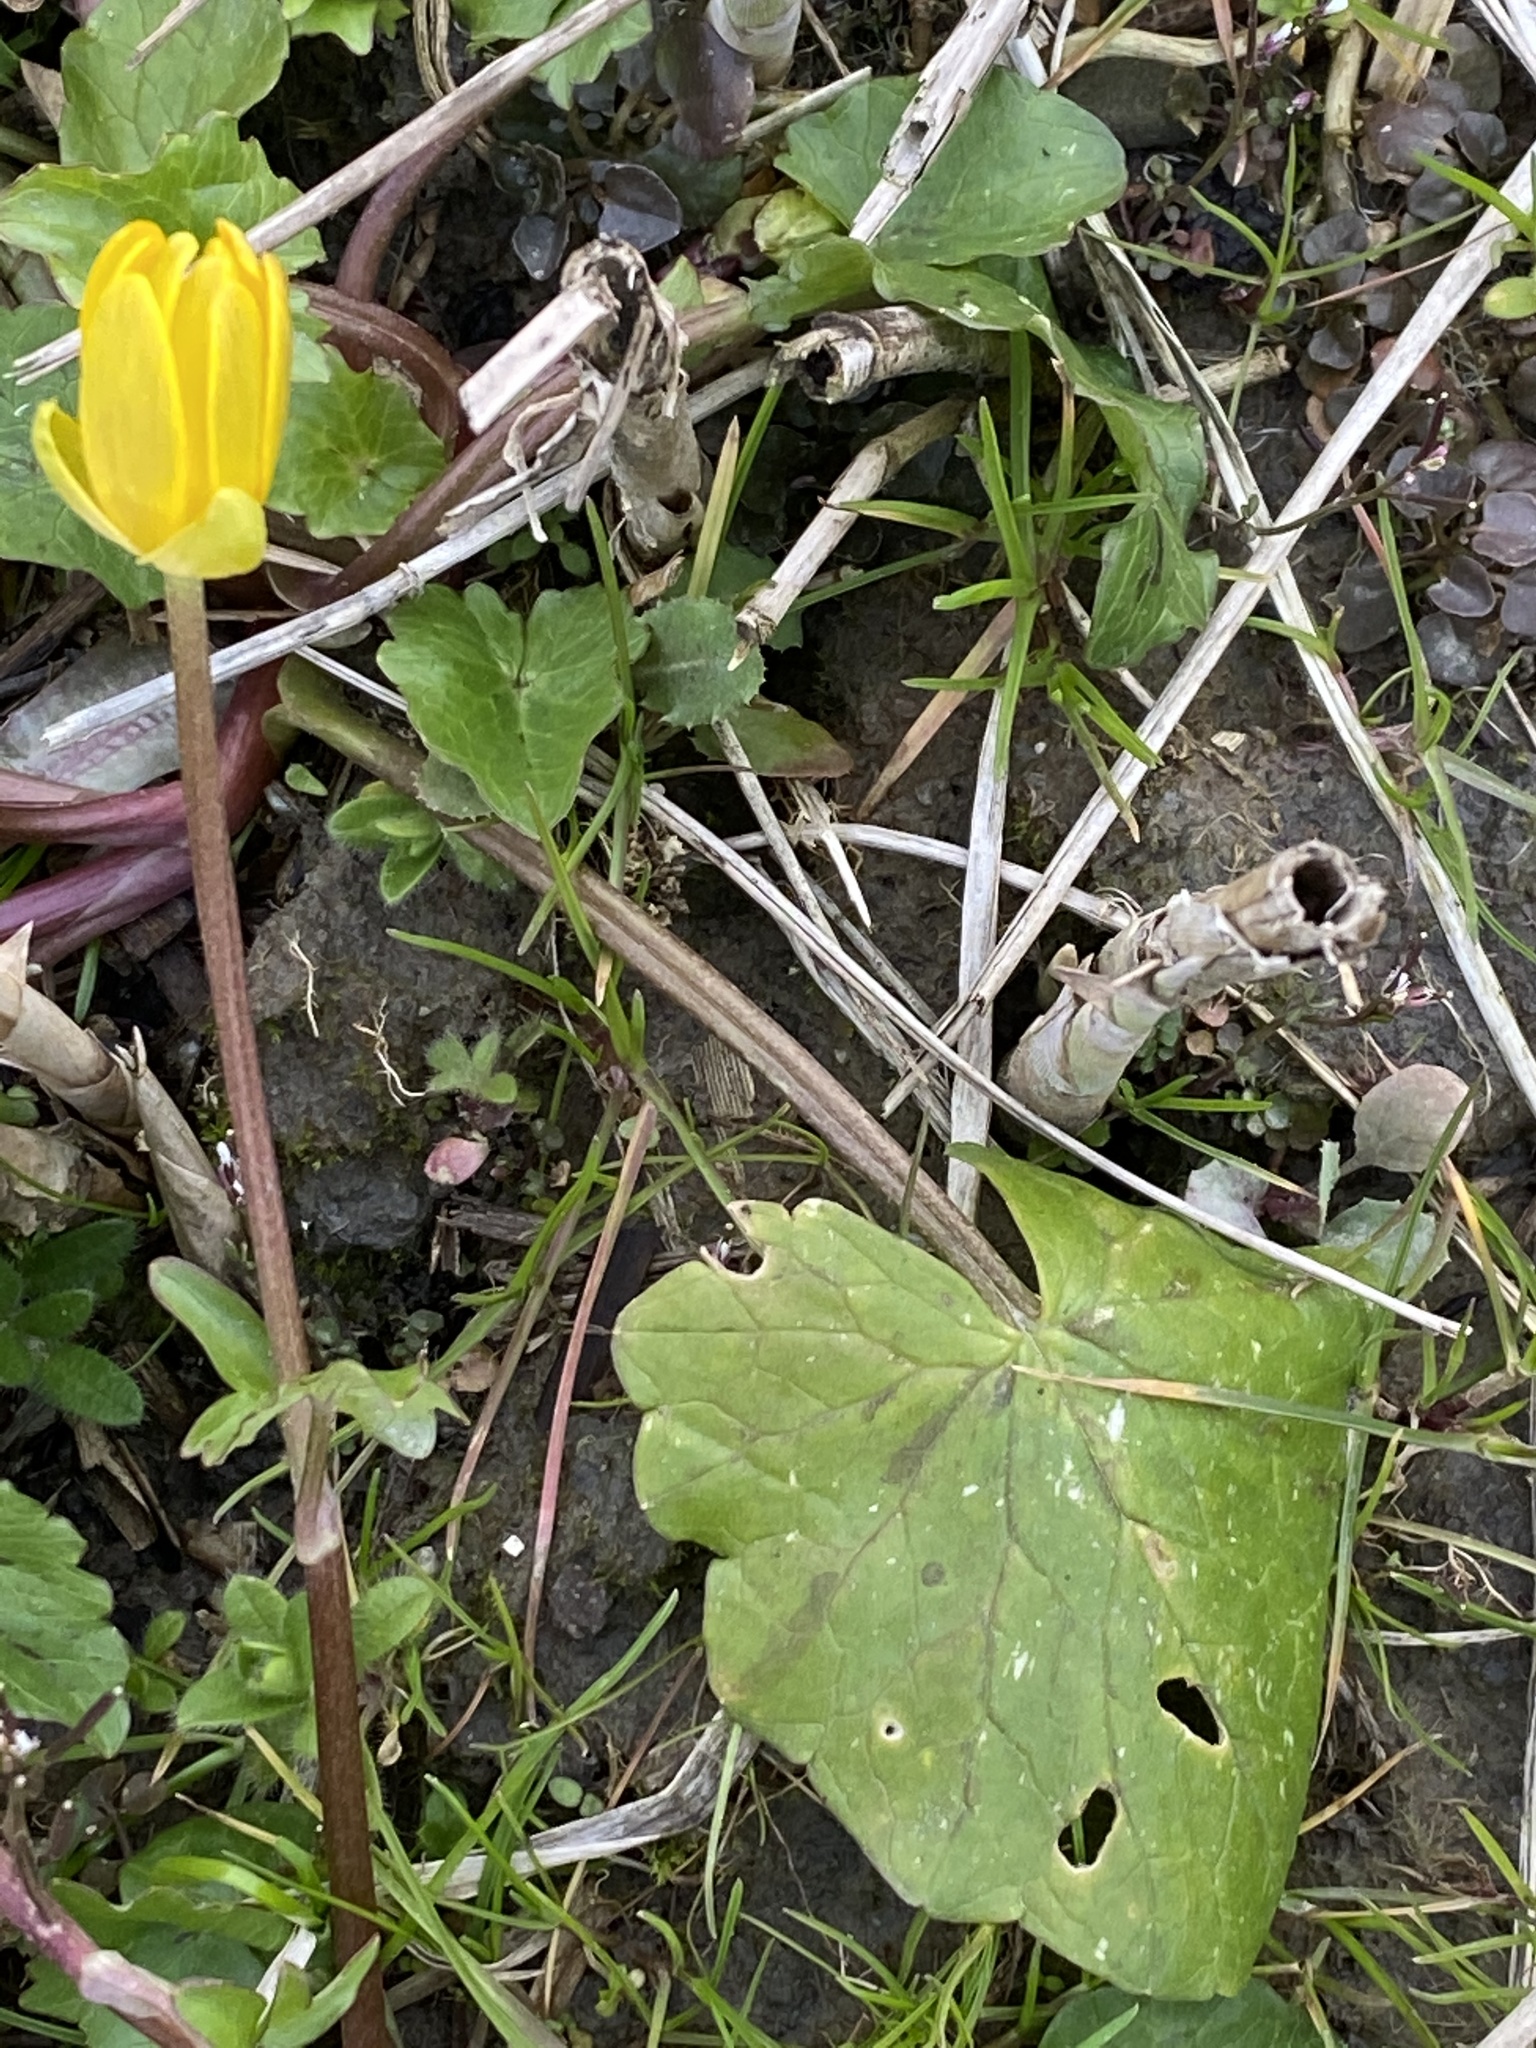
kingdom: Plantae
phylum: Tracheophyta
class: Magnoliopsida
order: Ranunculales
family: Ranunculaceae
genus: Ficaria
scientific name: Ficaria verna
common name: Lesser celandine
